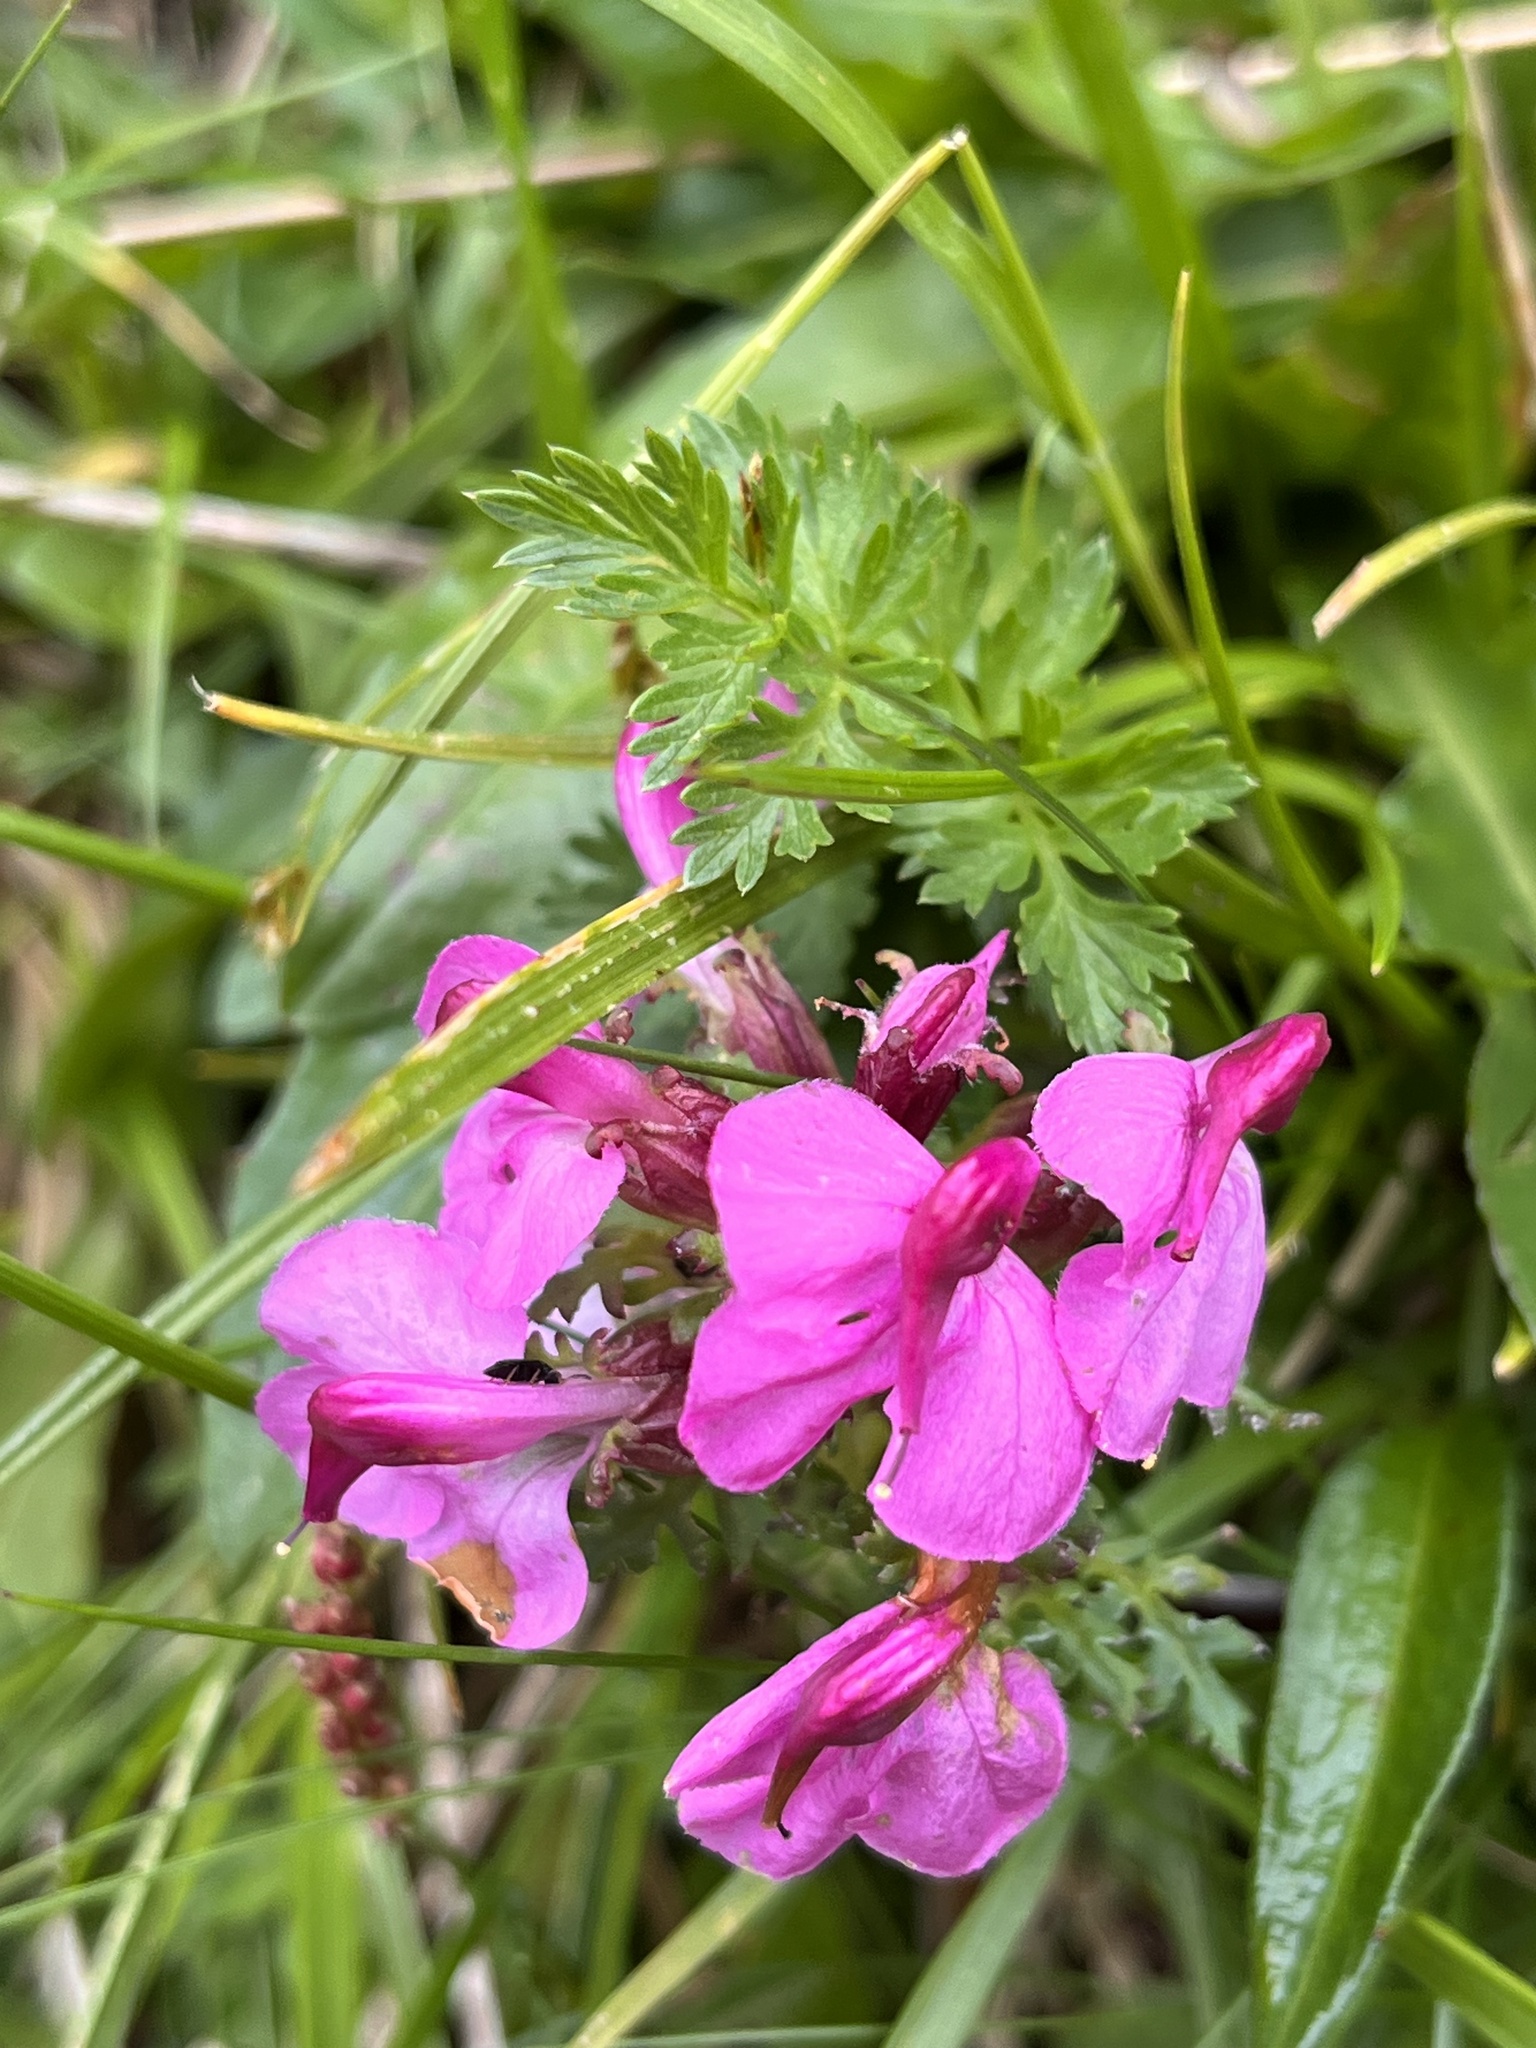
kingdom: Plantae
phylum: Tracheophyta
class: Magnoliopsida
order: Lamiales
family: Orobanchaceae
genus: Pedicularis
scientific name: Pedicularis rostratocapitata
